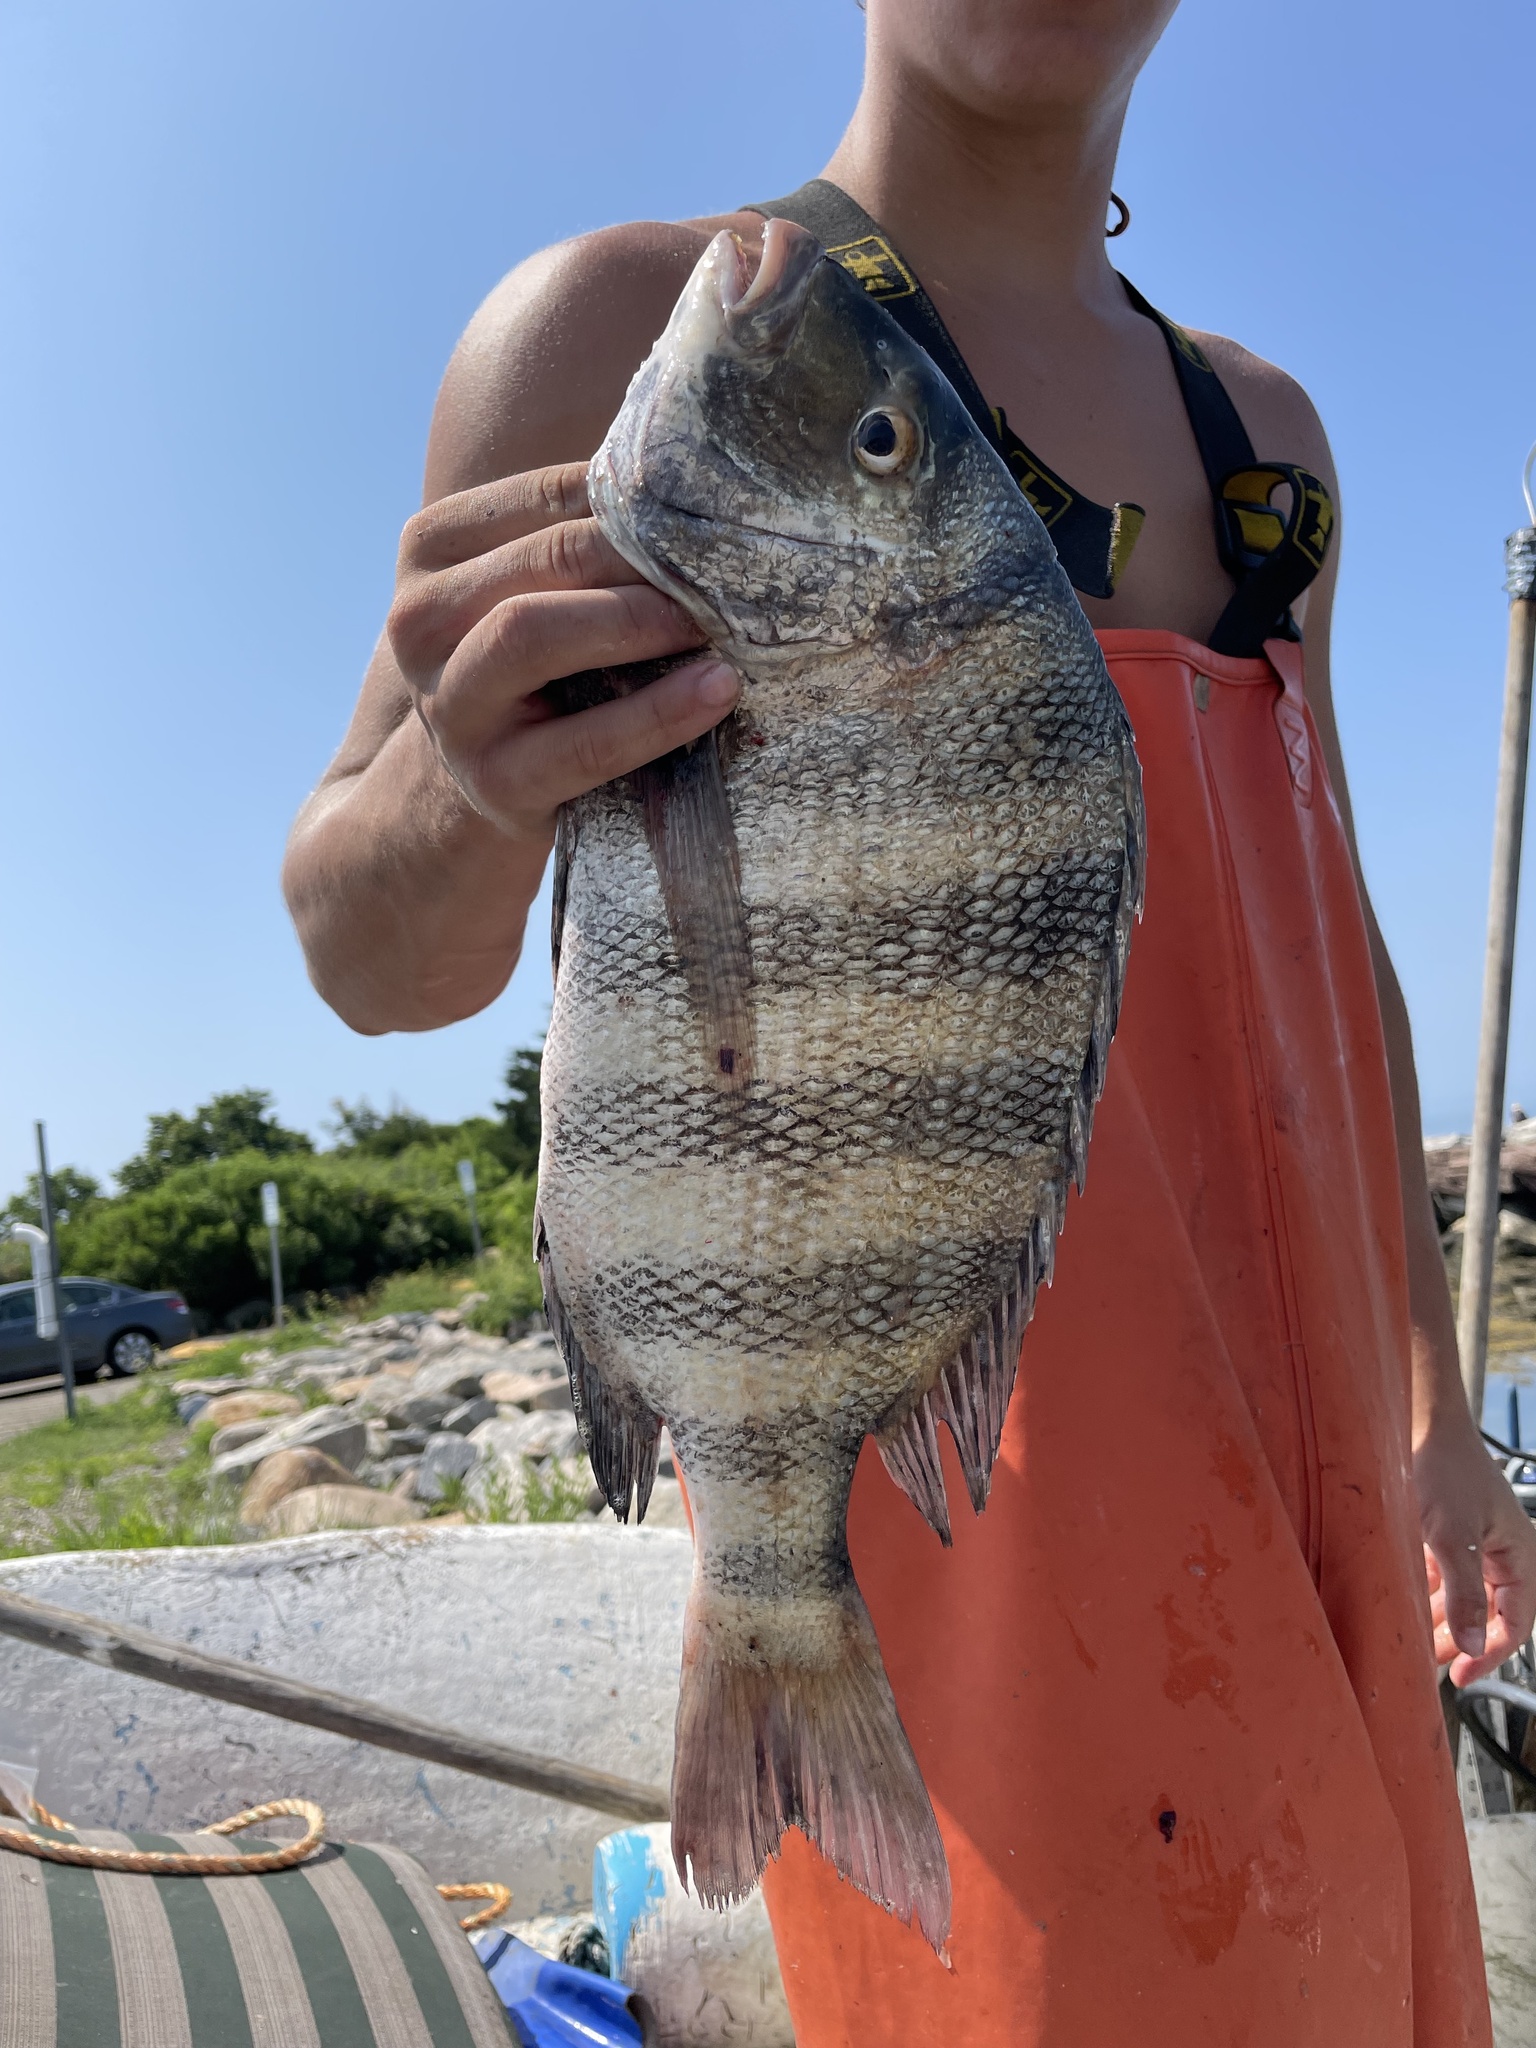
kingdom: Animalia
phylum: Chordata
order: Perciformes
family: Sparidae
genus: Archosargus
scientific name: Archosargus probatocephalus
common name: Sheepshead
